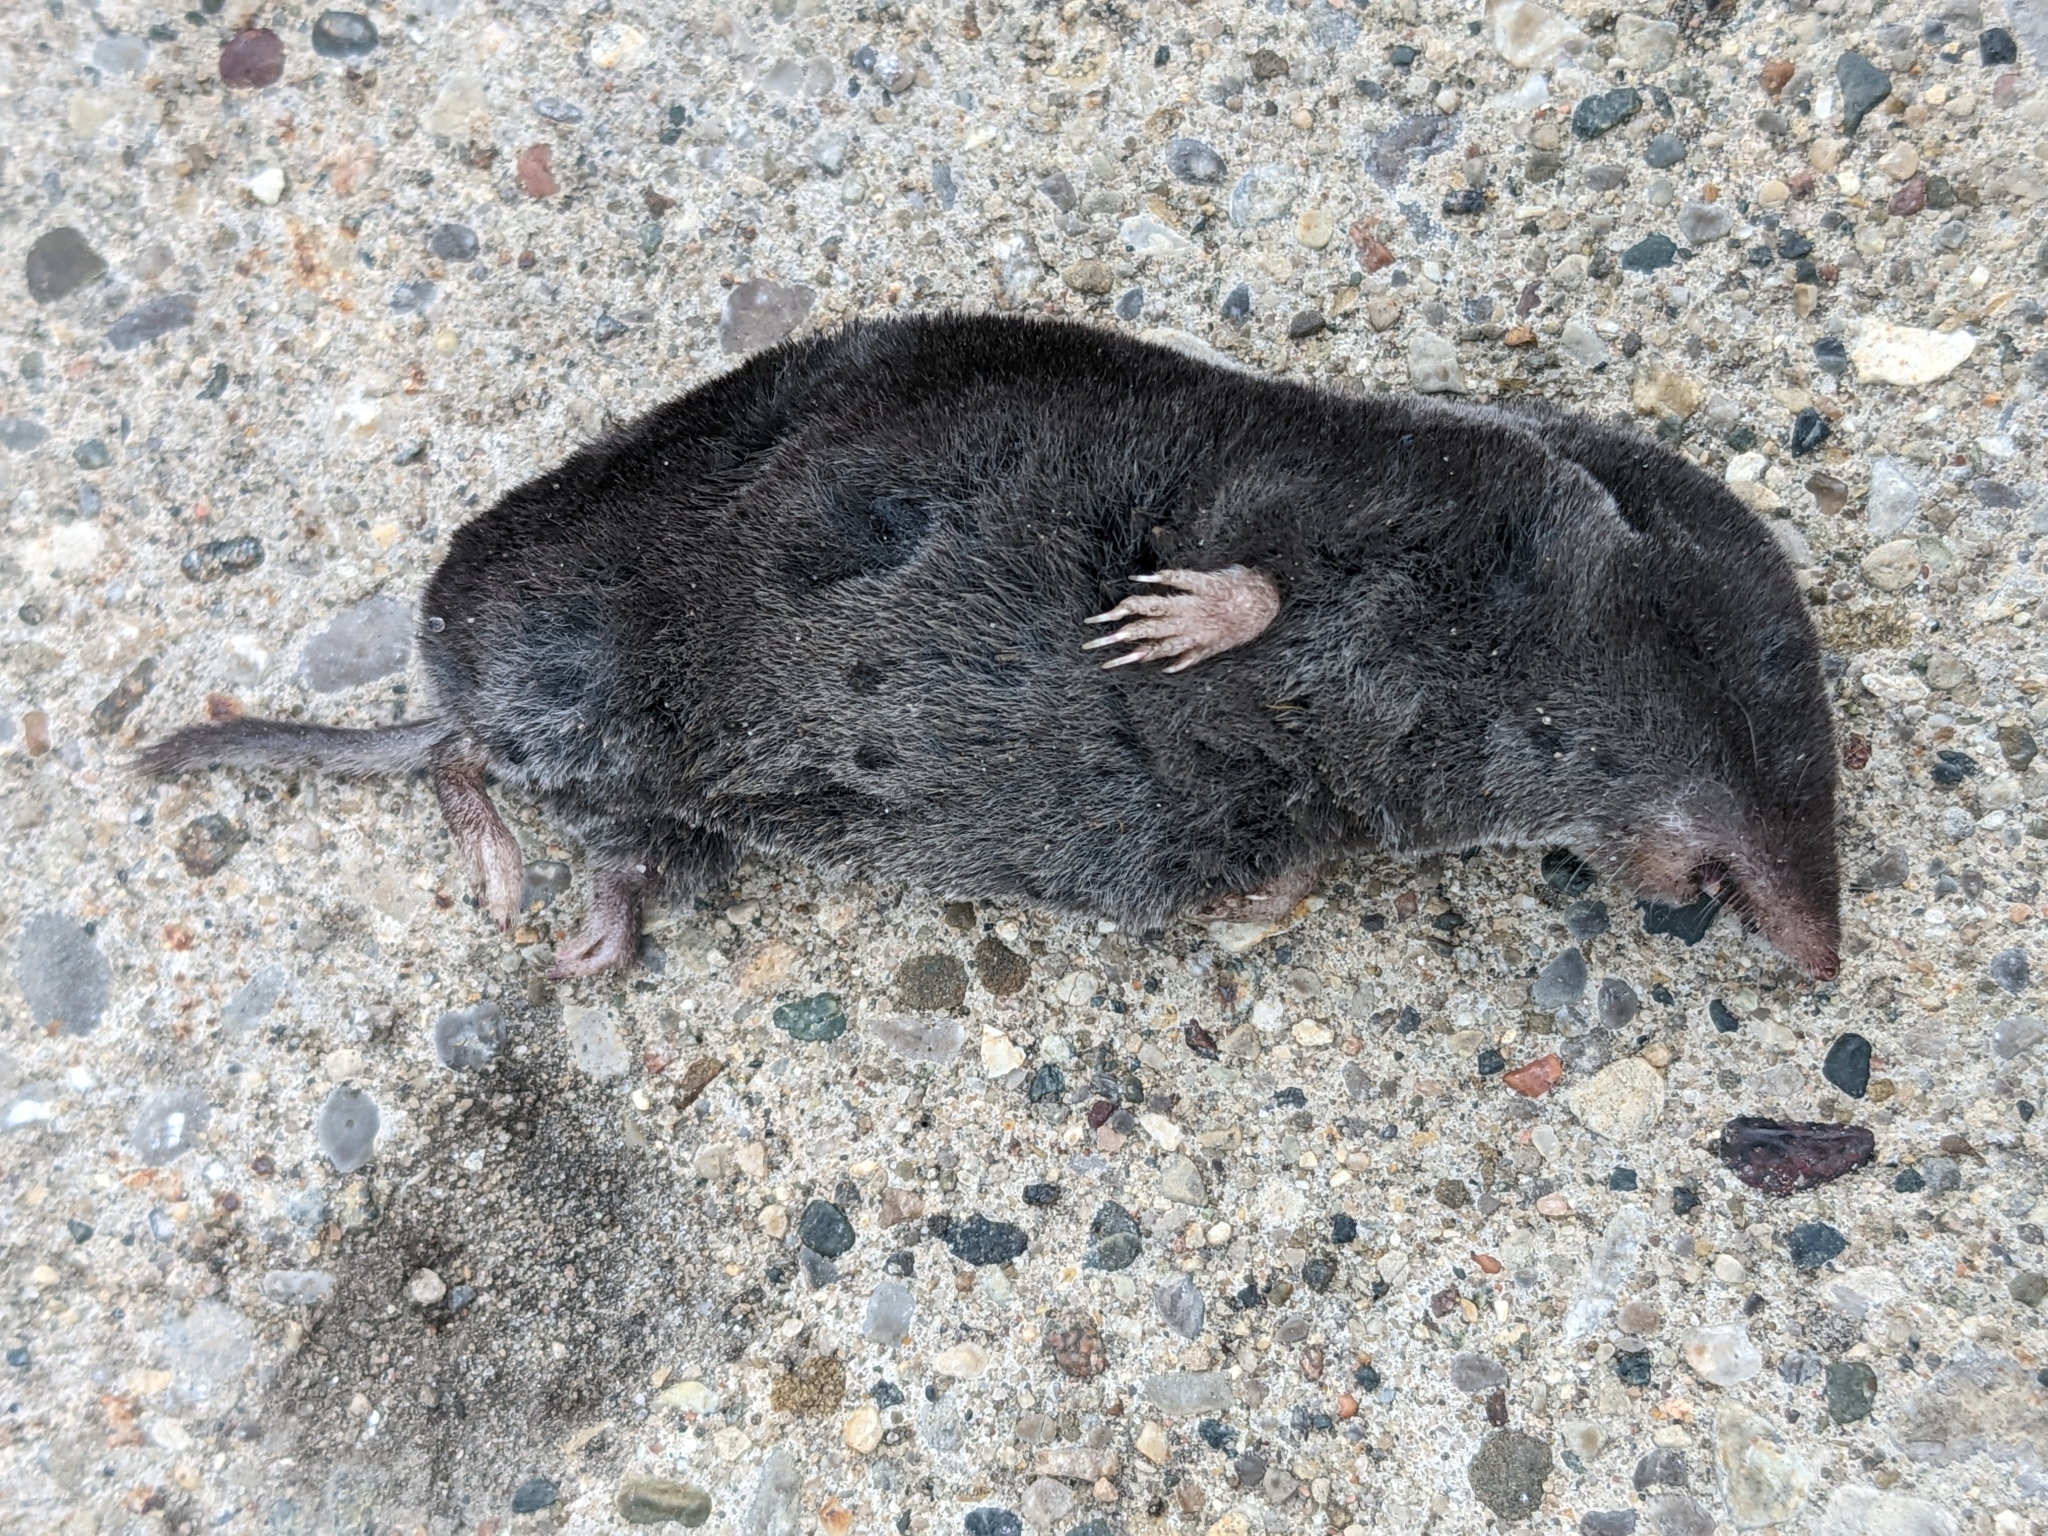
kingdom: Animalia
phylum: Chordata
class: Mammalia
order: Soricomorpha
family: Soricidae
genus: Blarina
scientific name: Blarina brevicauda
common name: Northern short-tailed shrew
